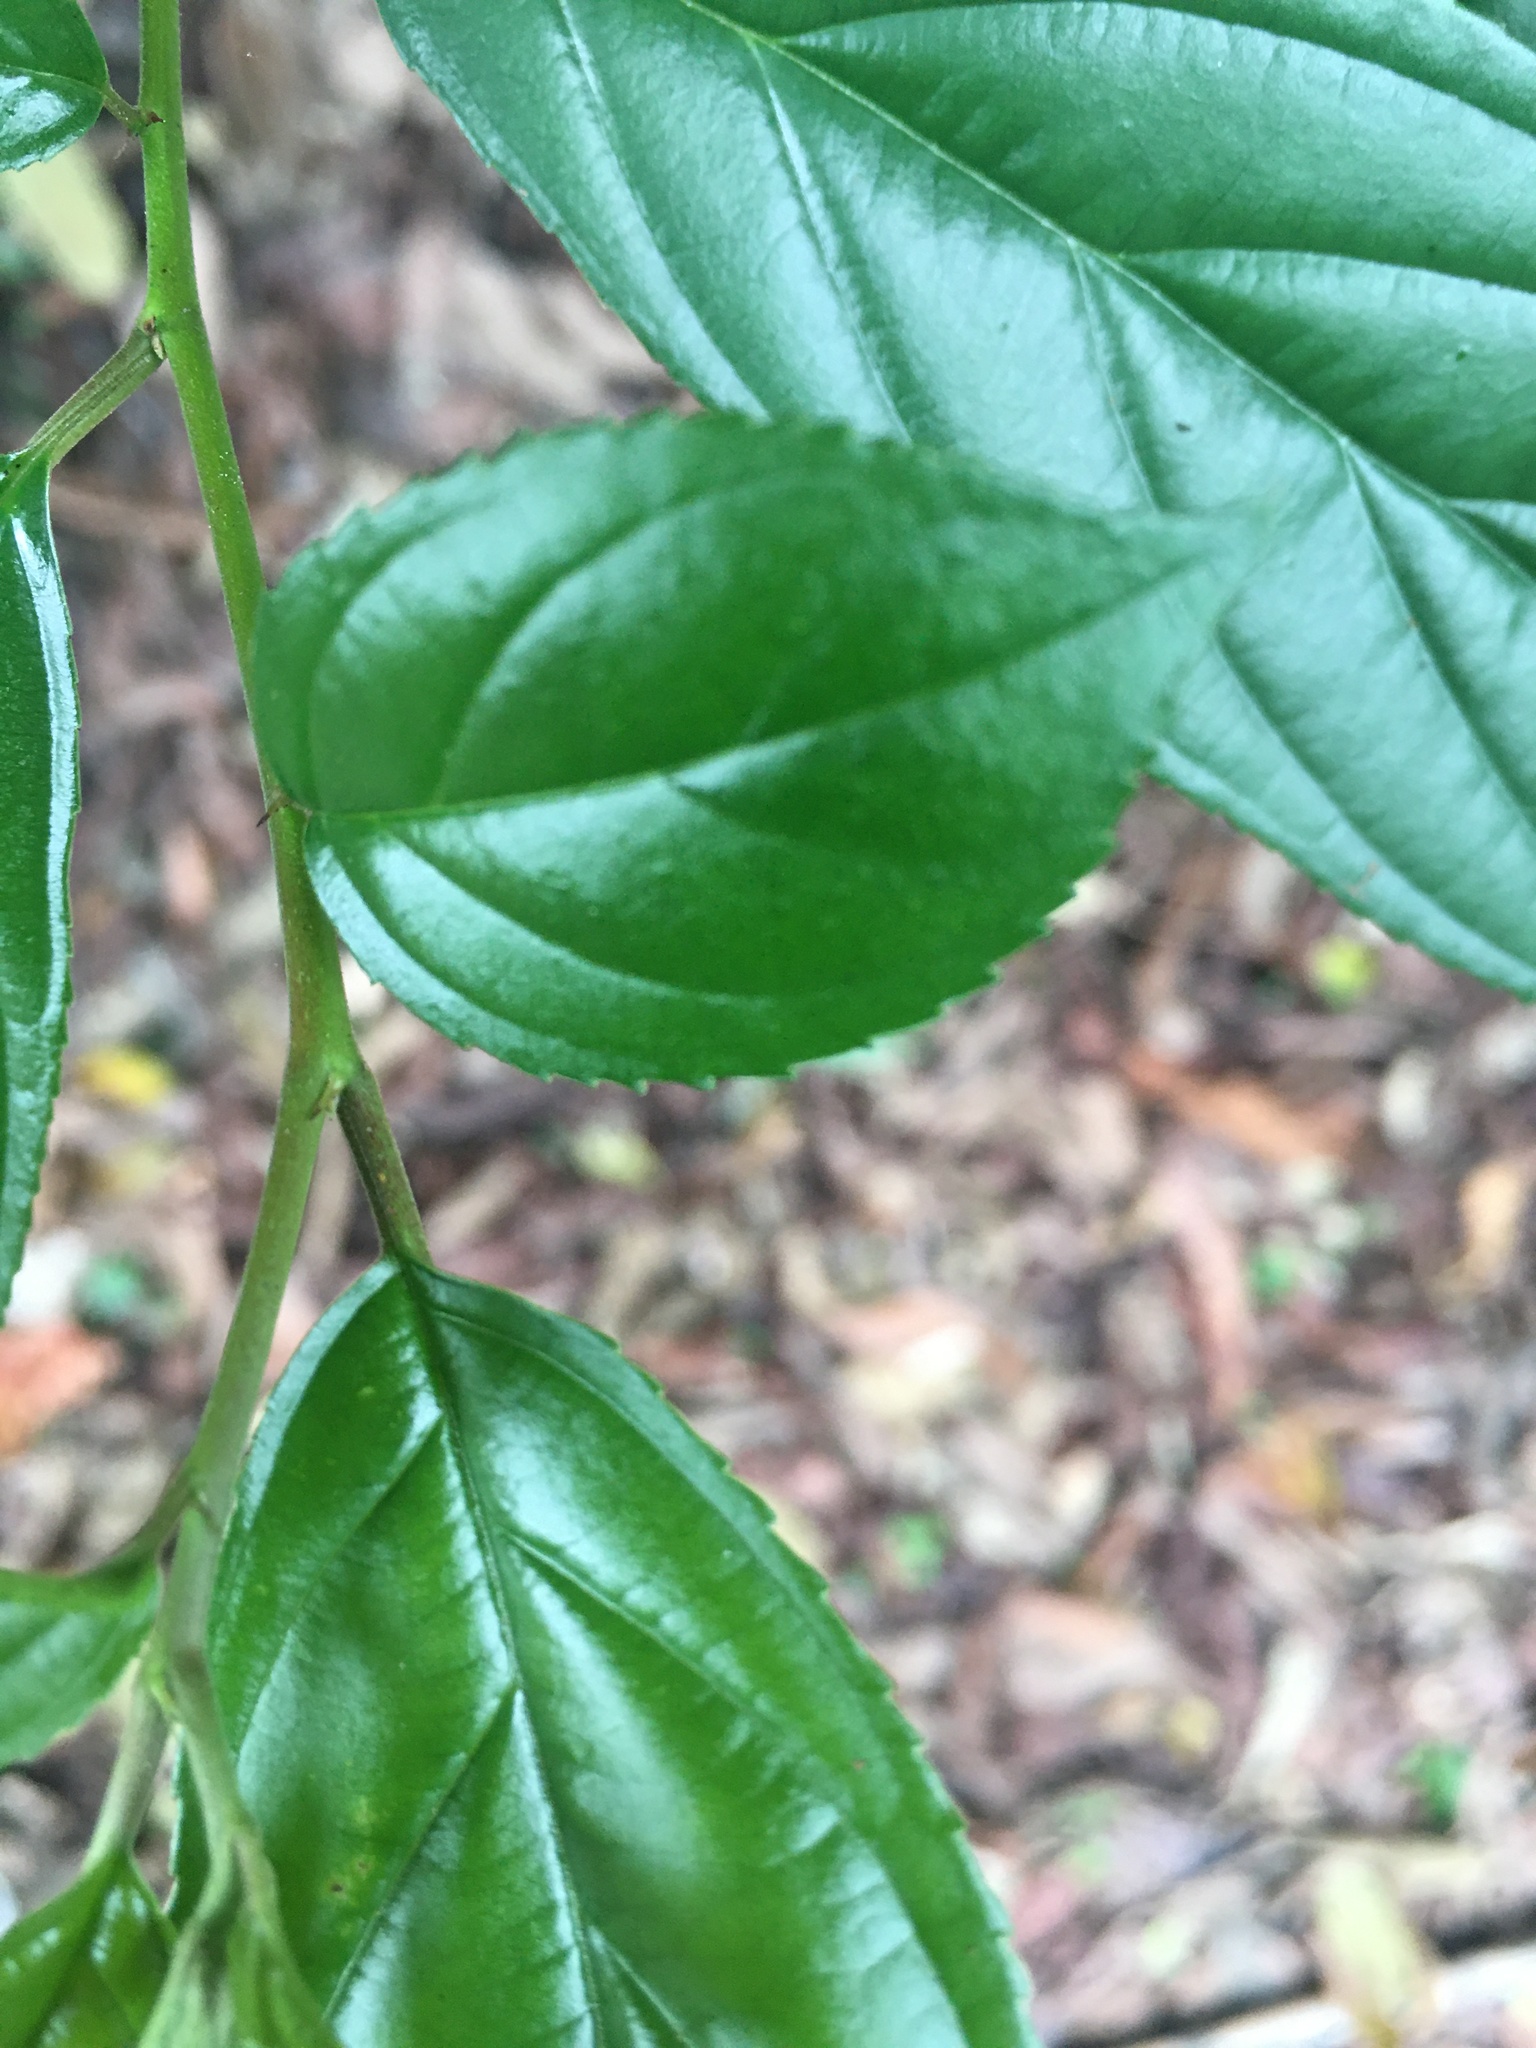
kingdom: Plantae
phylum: Tracheophyta
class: Magnoliopsida
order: Rosales
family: Rhamnaceae
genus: Rhamnus
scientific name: Rhamnus formosana
